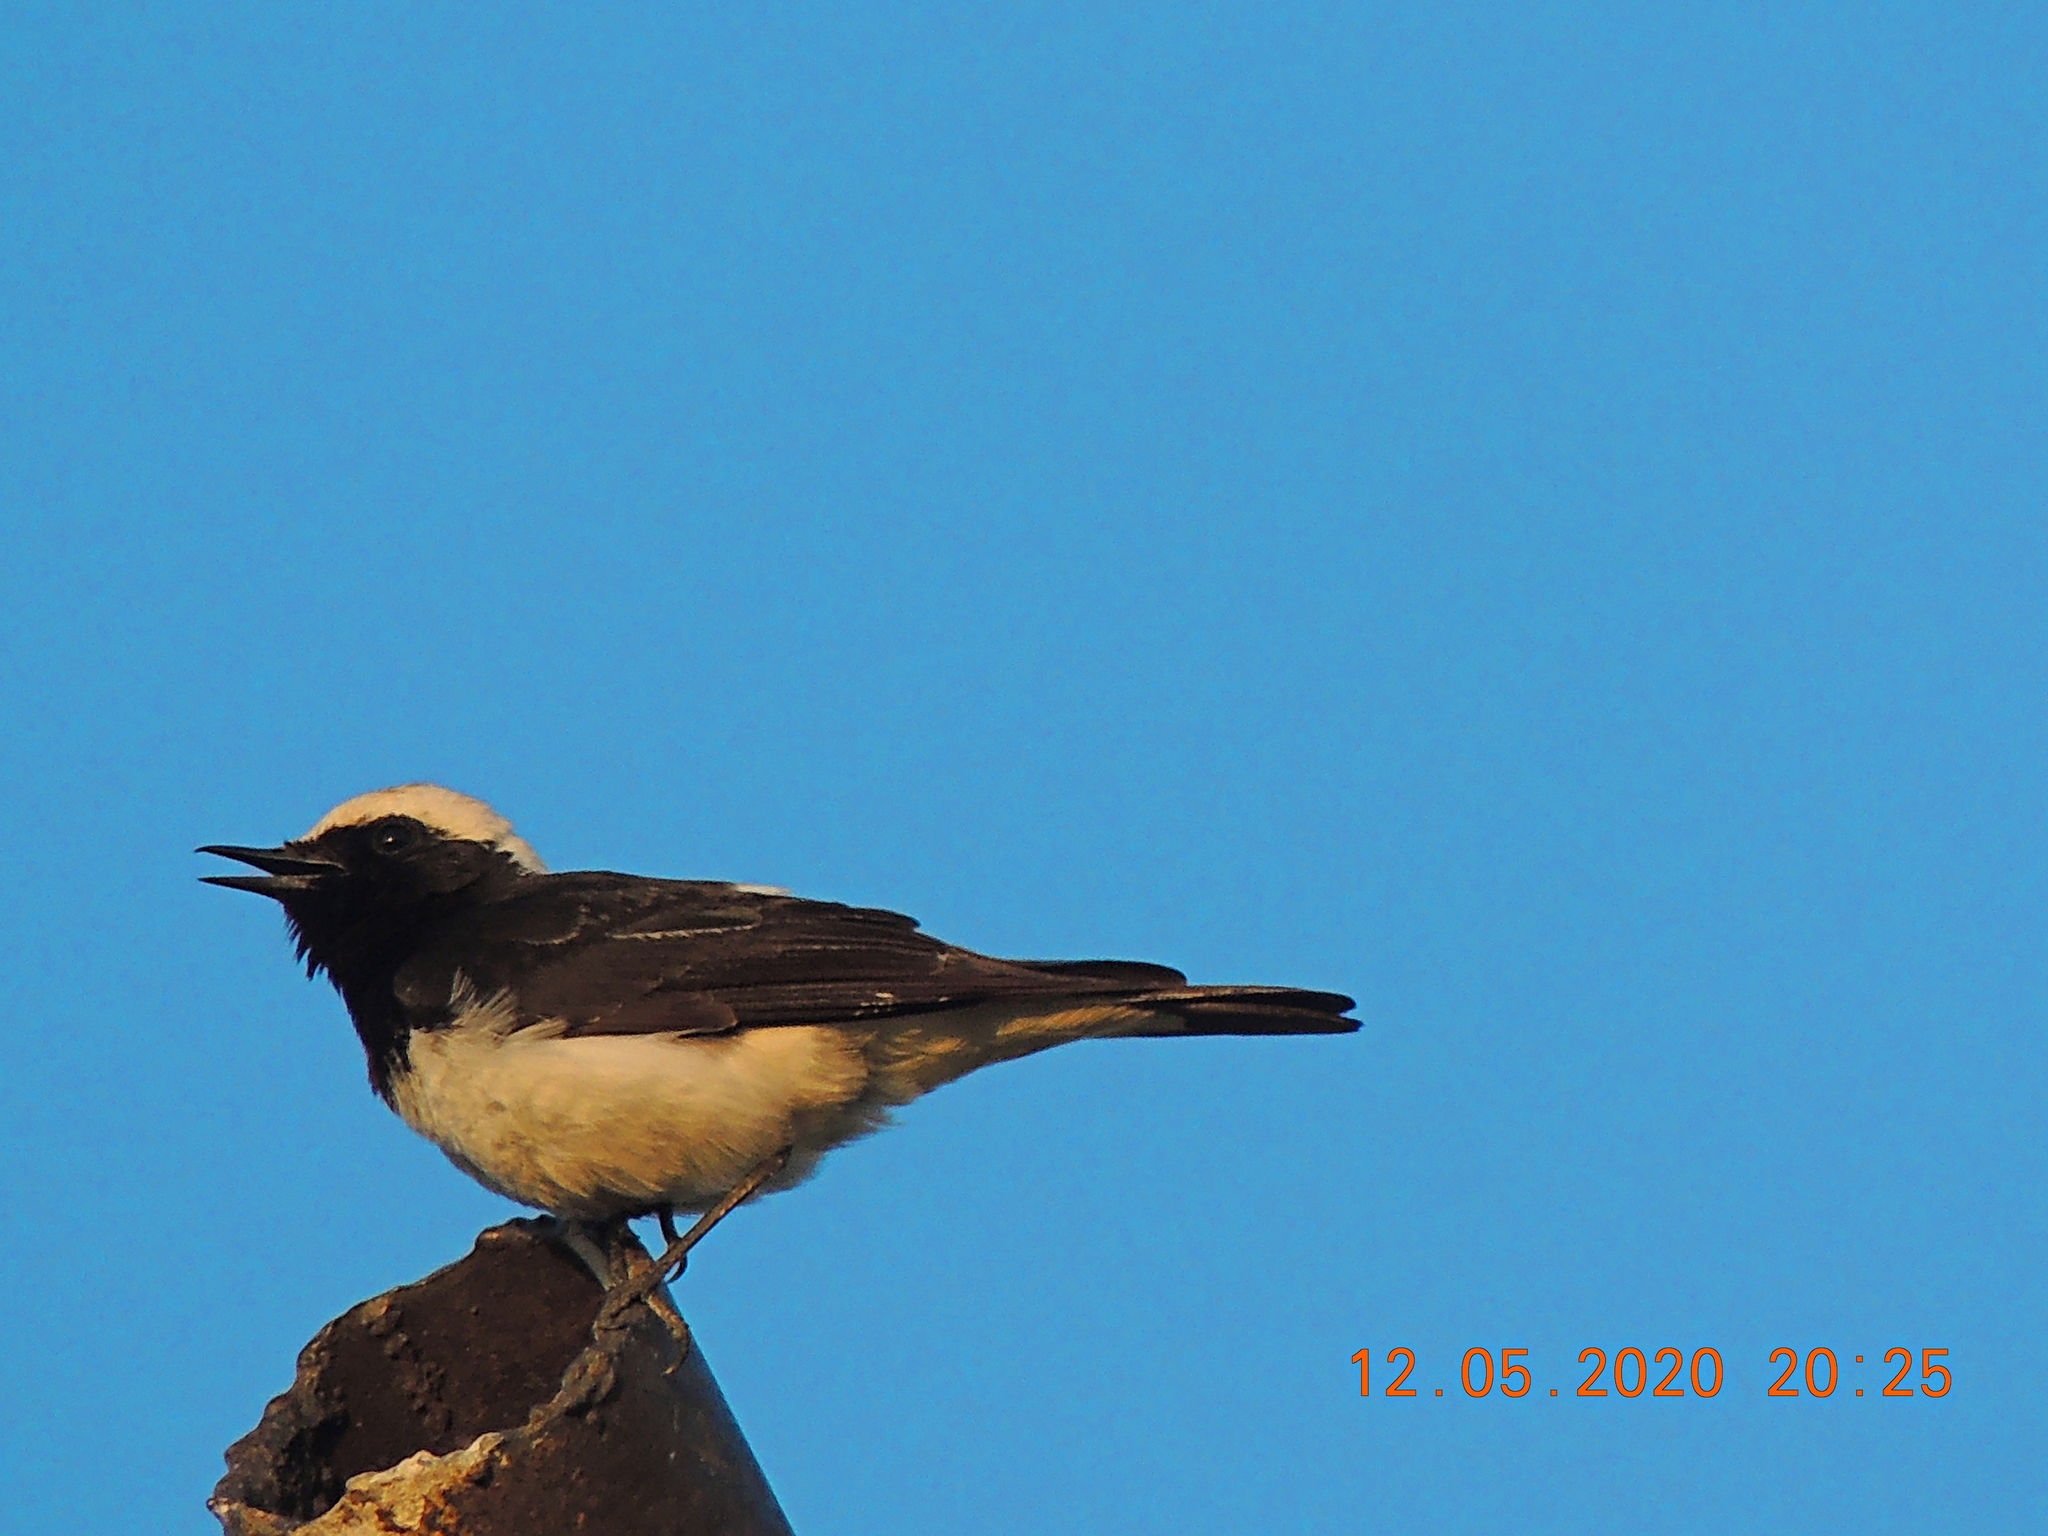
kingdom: Animalia
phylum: Chordata
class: Aves
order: Passeriformes
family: Muscicapidae
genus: Oenanthe
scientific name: Oenanthe pleschanka
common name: Pied wheatear
